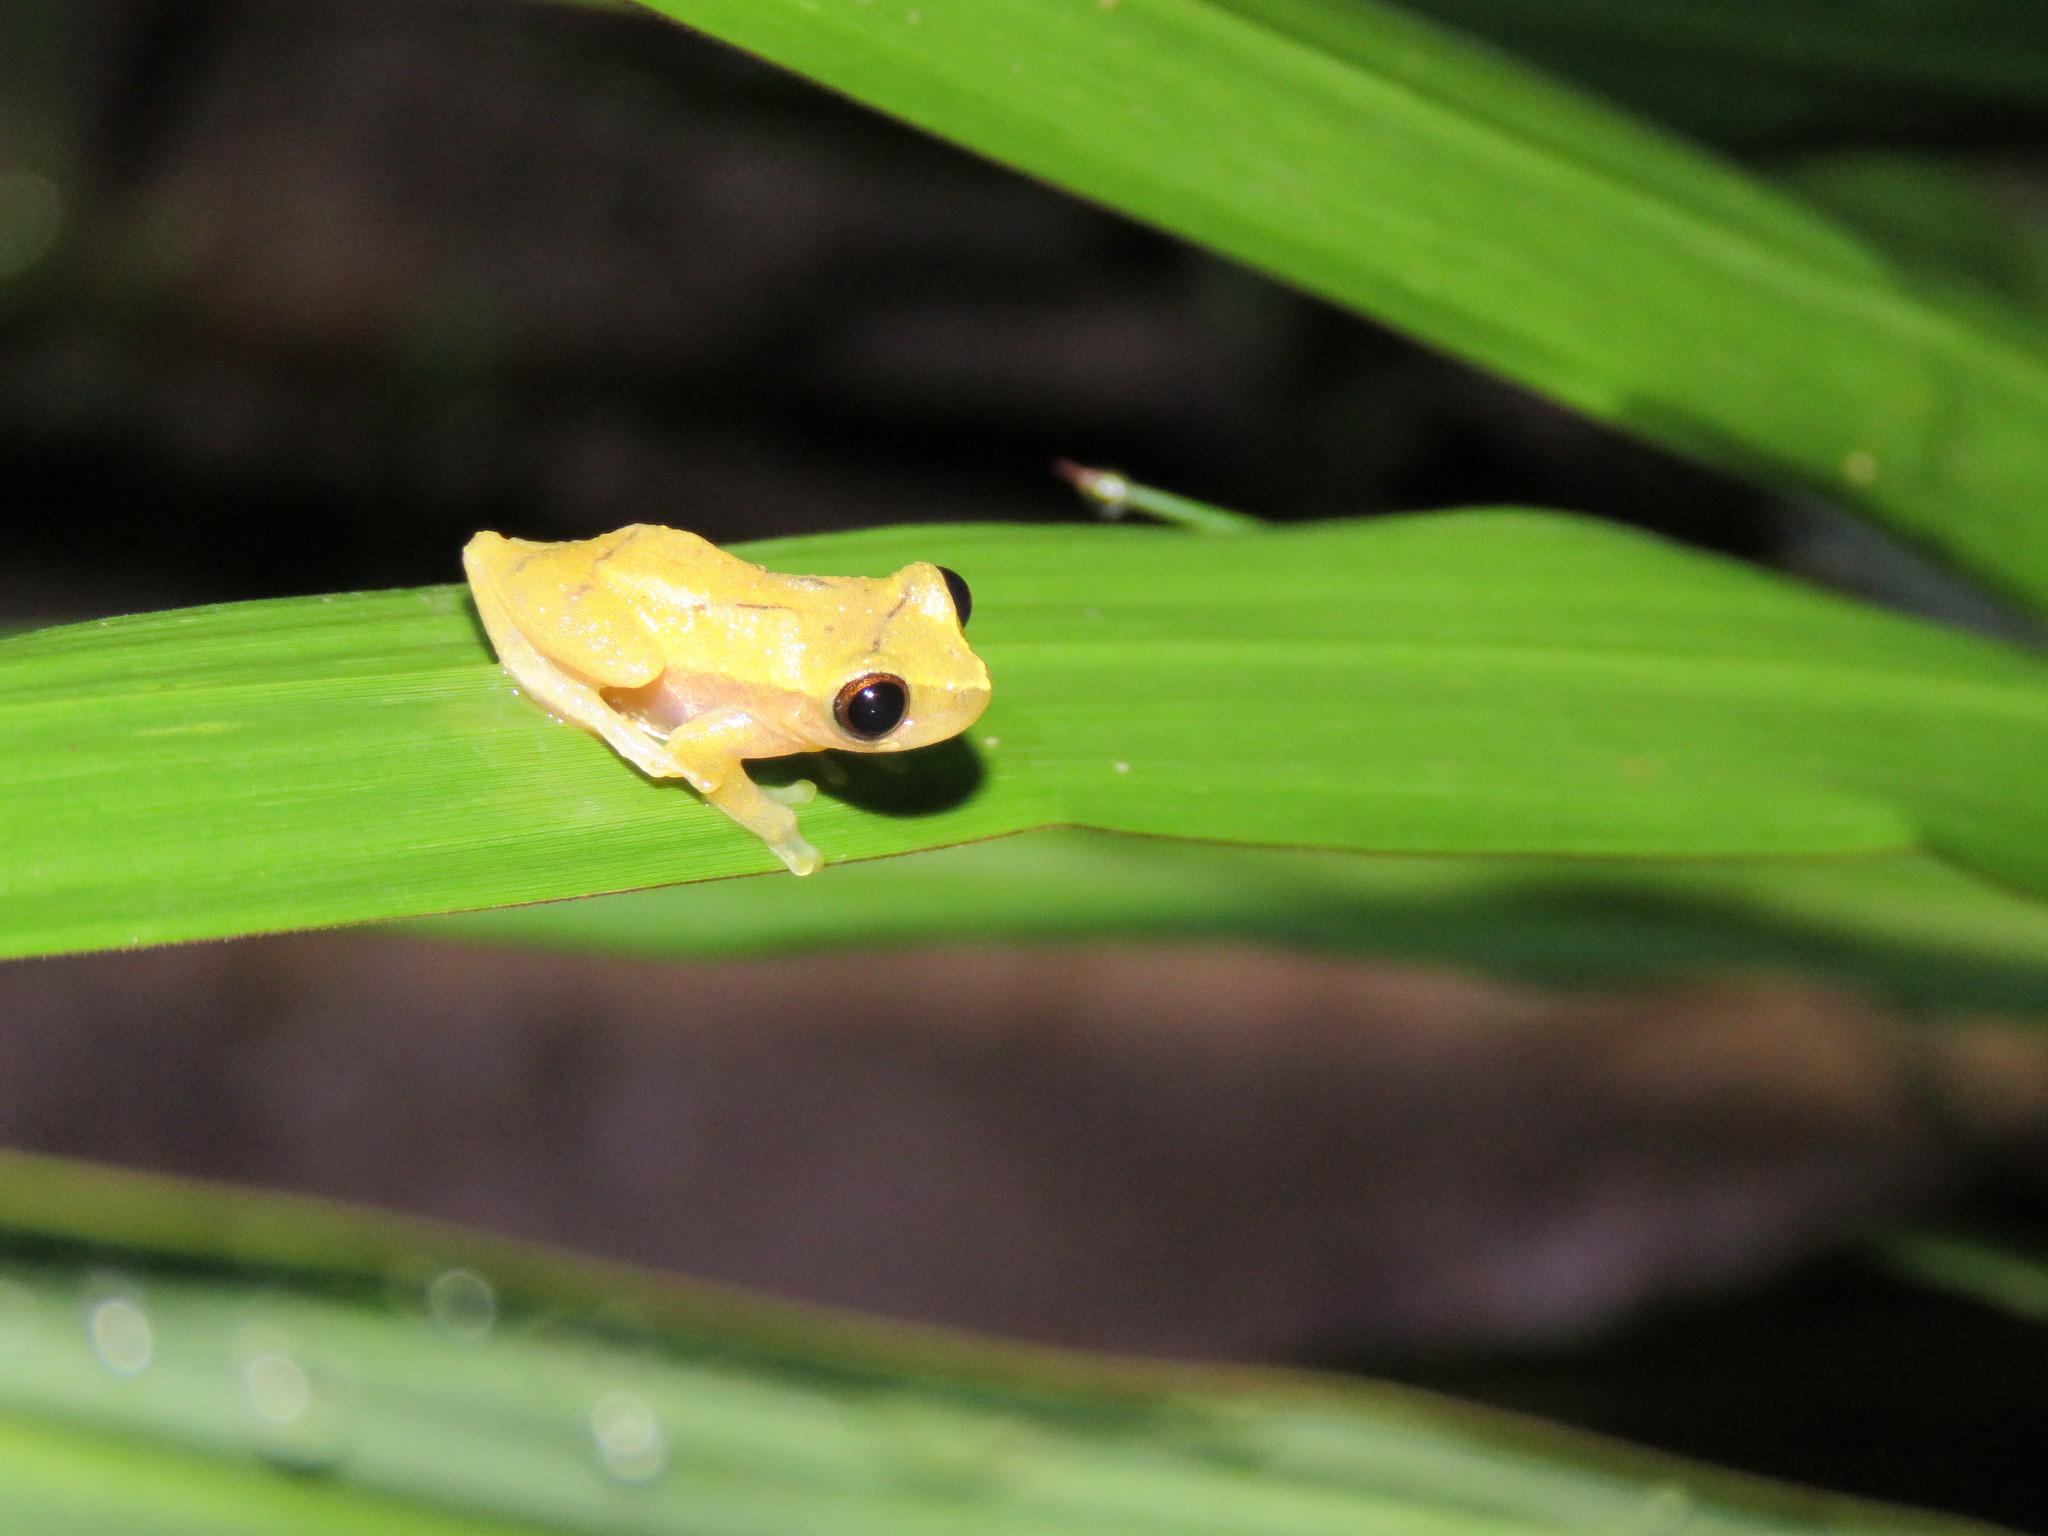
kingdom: Animalia
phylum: Chordata
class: Amphibia
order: Anura
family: Hylidae
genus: Dendropsophus
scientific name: Dendropsophus riveroi
